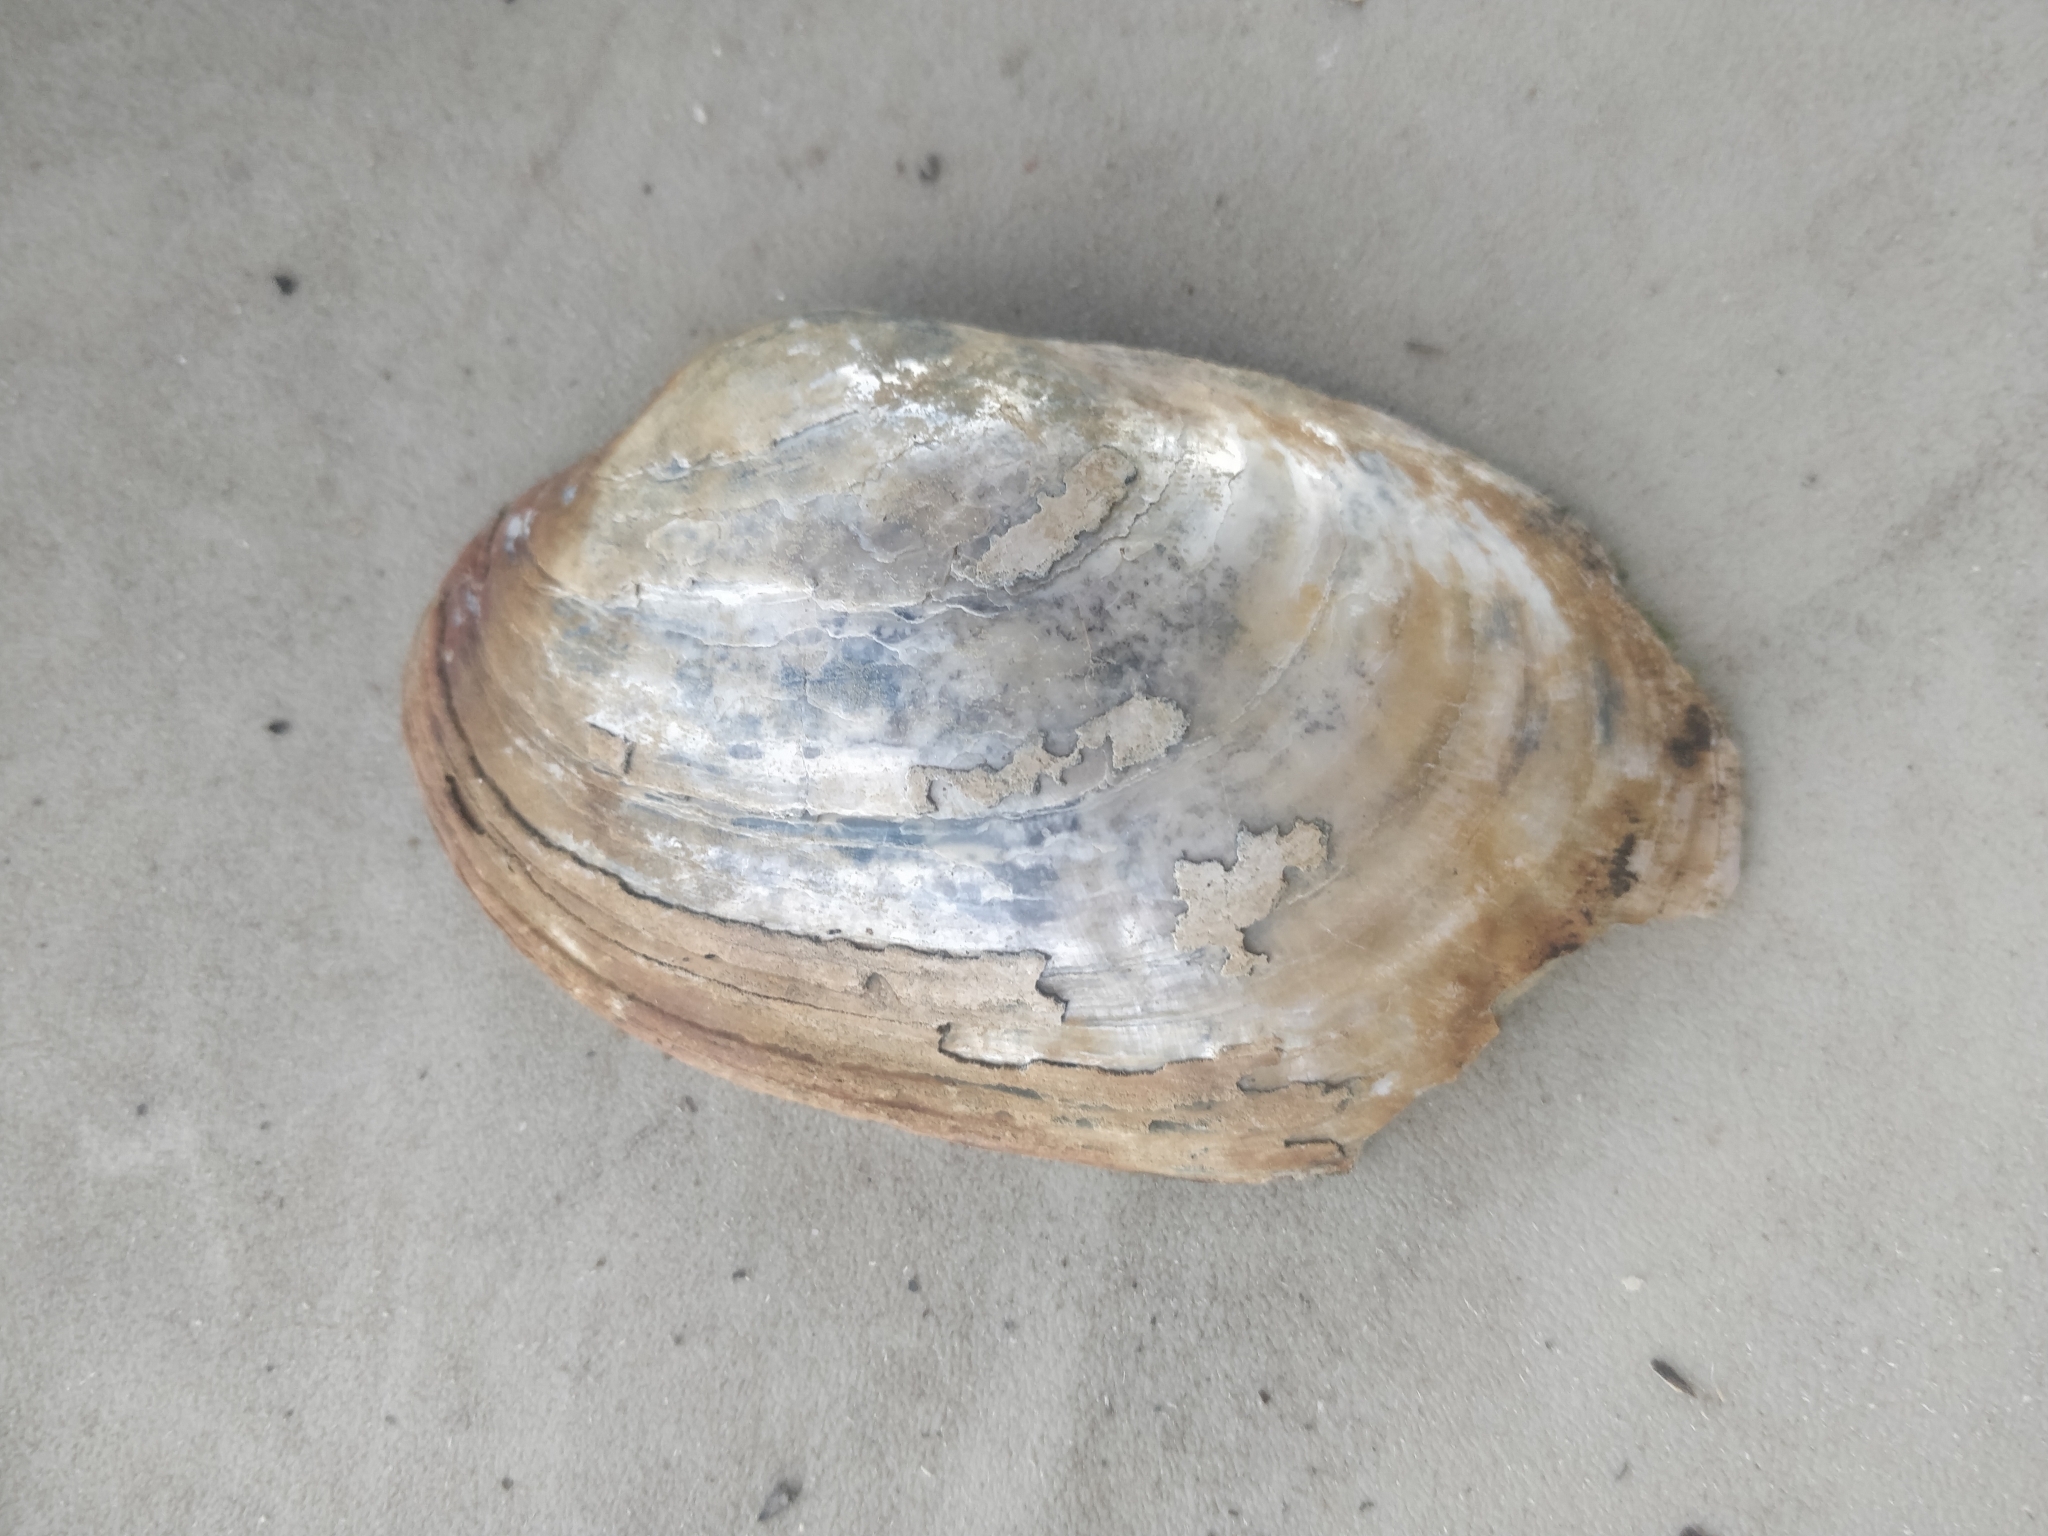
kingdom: Animalia
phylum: Mollusca
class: Bivalvia
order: Unionida
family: Unionidae
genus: Lampsilis
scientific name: Lampsilis siliquoidea
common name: Fatmucket
